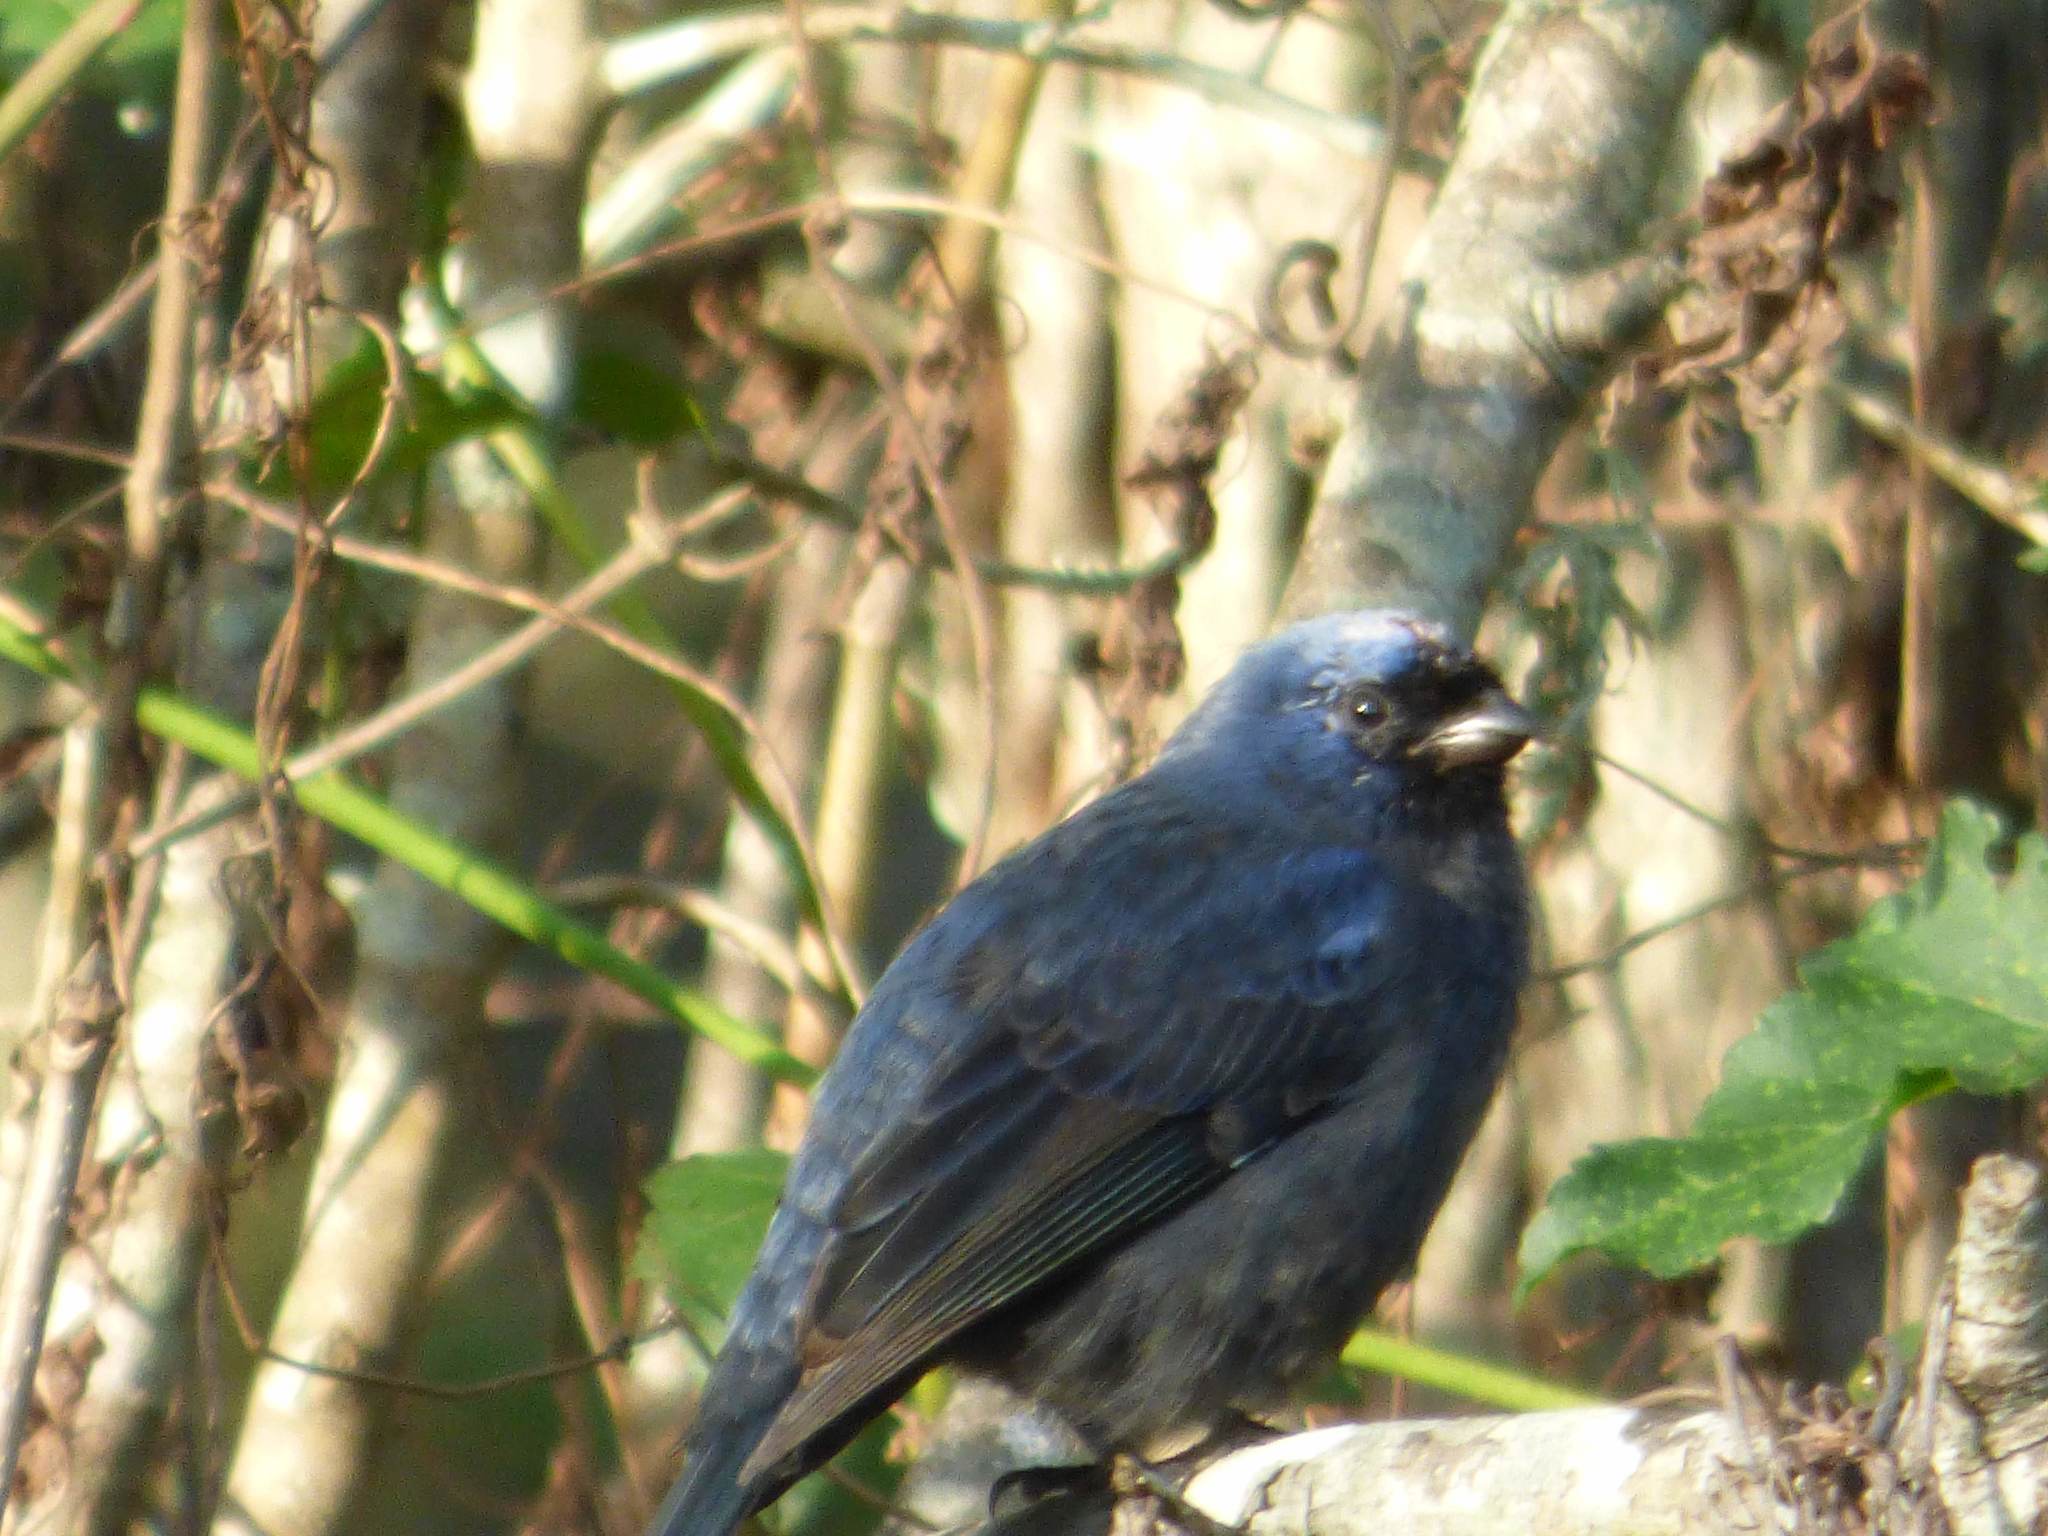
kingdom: Animalia
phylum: Chordata
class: Aves
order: Passeriformes
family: Thraupidae
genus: Stephanophorus
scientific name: Stephanophorus diadematus
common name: Diademed tanager
